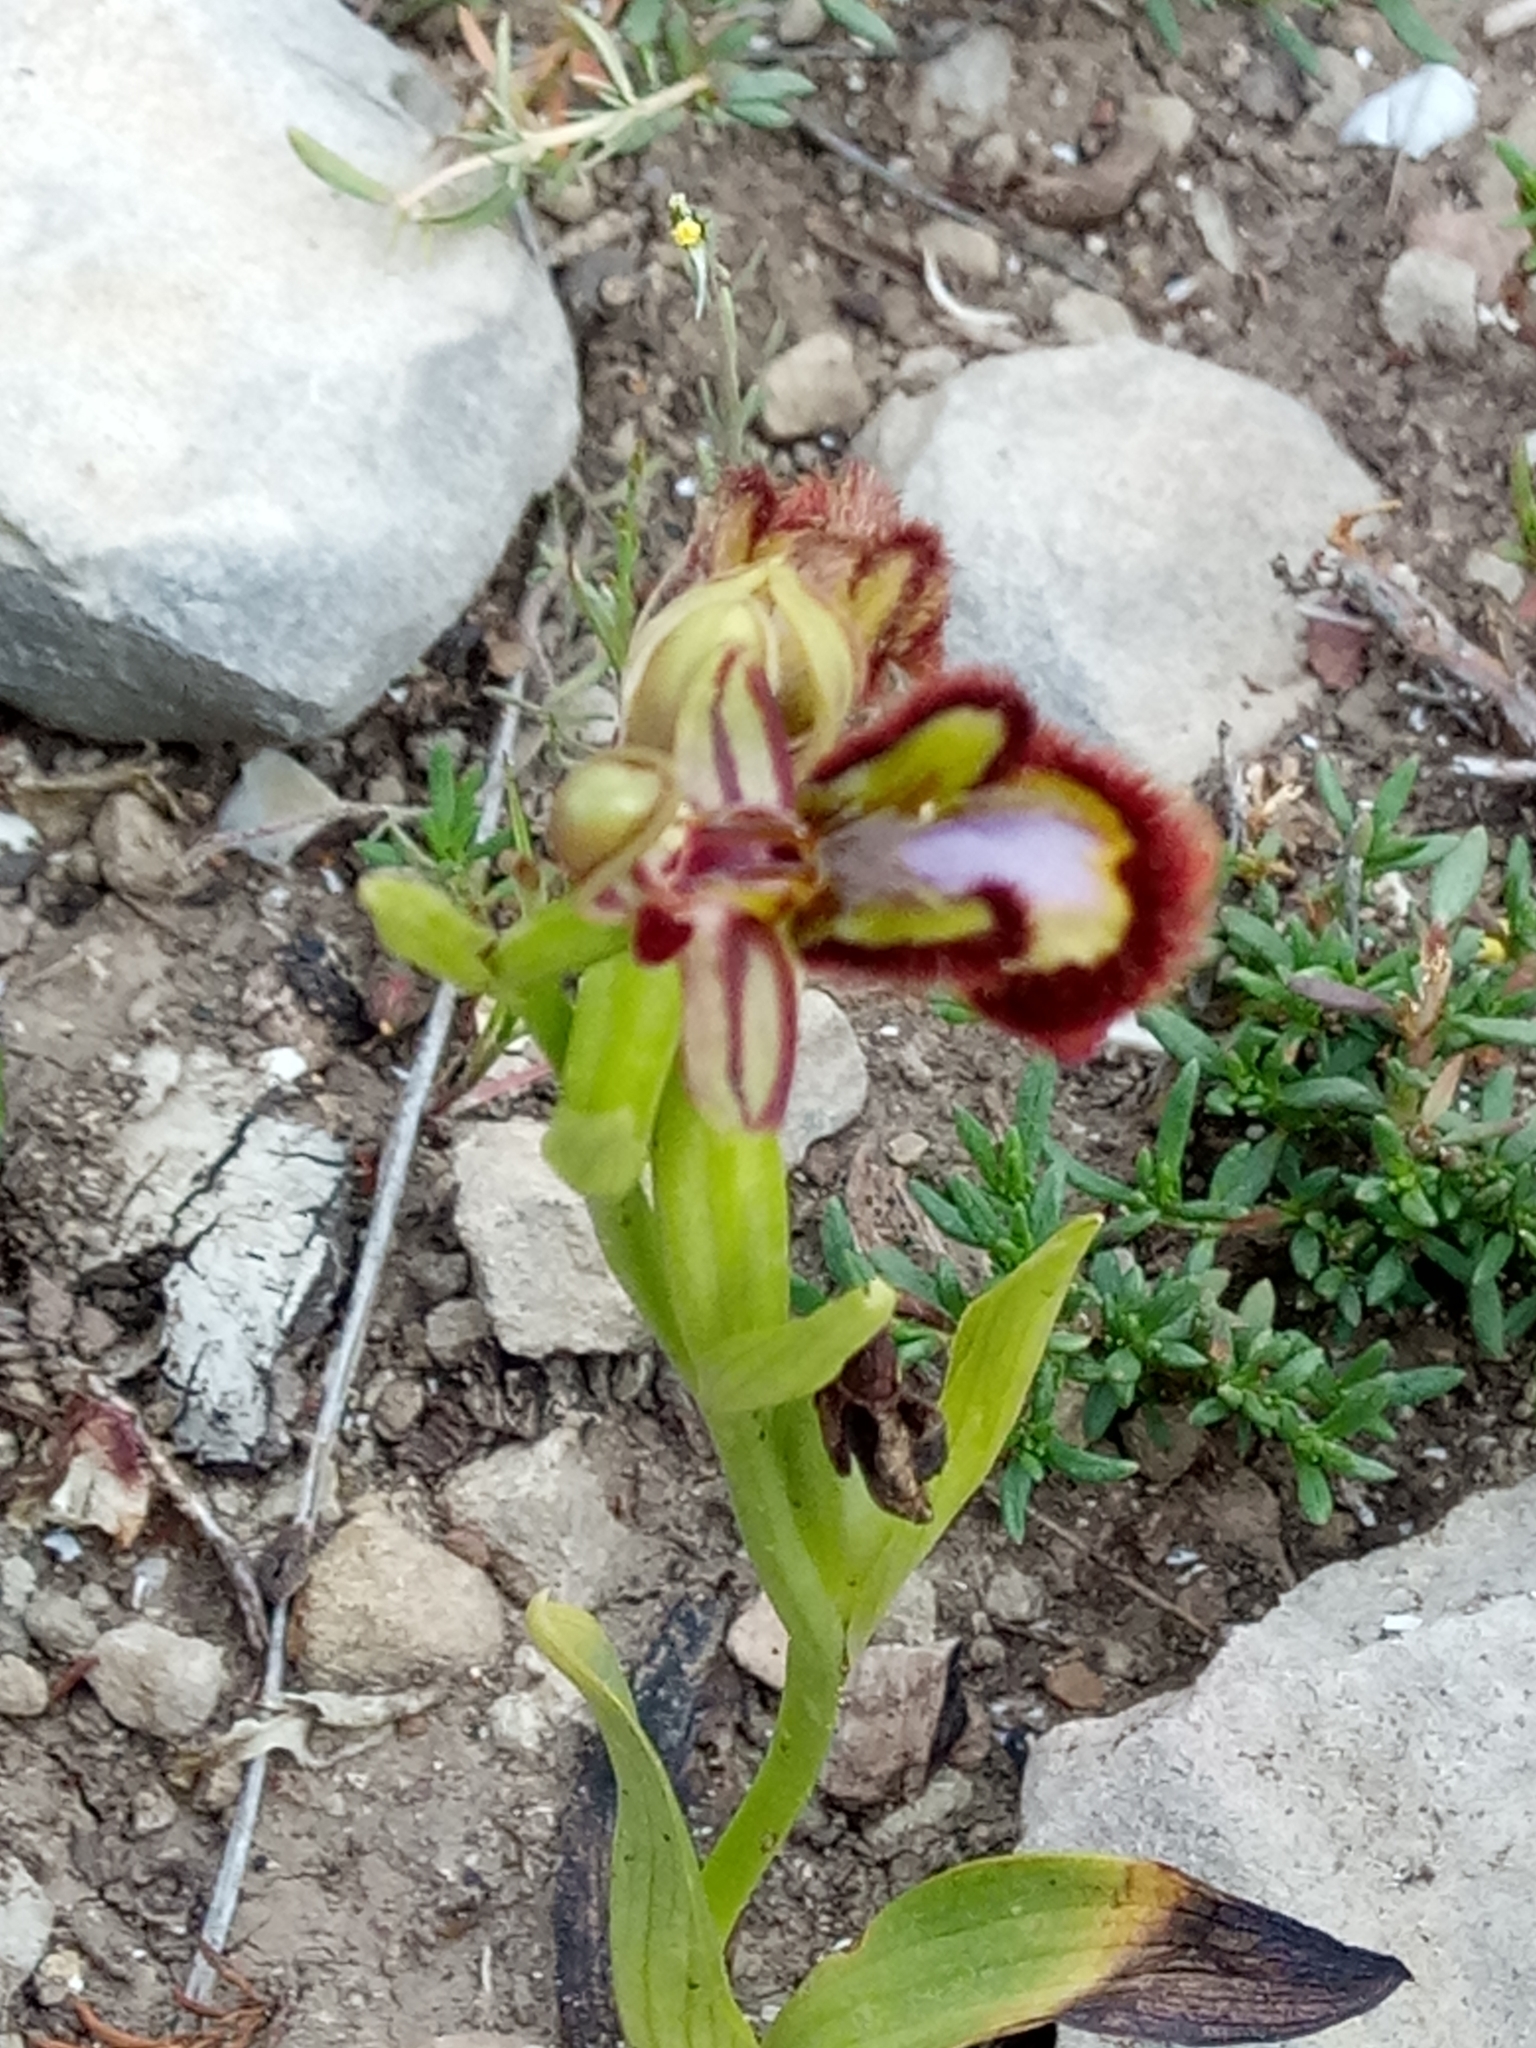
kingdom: Plantae
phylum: Tracheophyta
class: Liliopsida
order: Asparagales
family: Orchidaceae
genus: Ophrys
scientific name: Ophrys speculum
